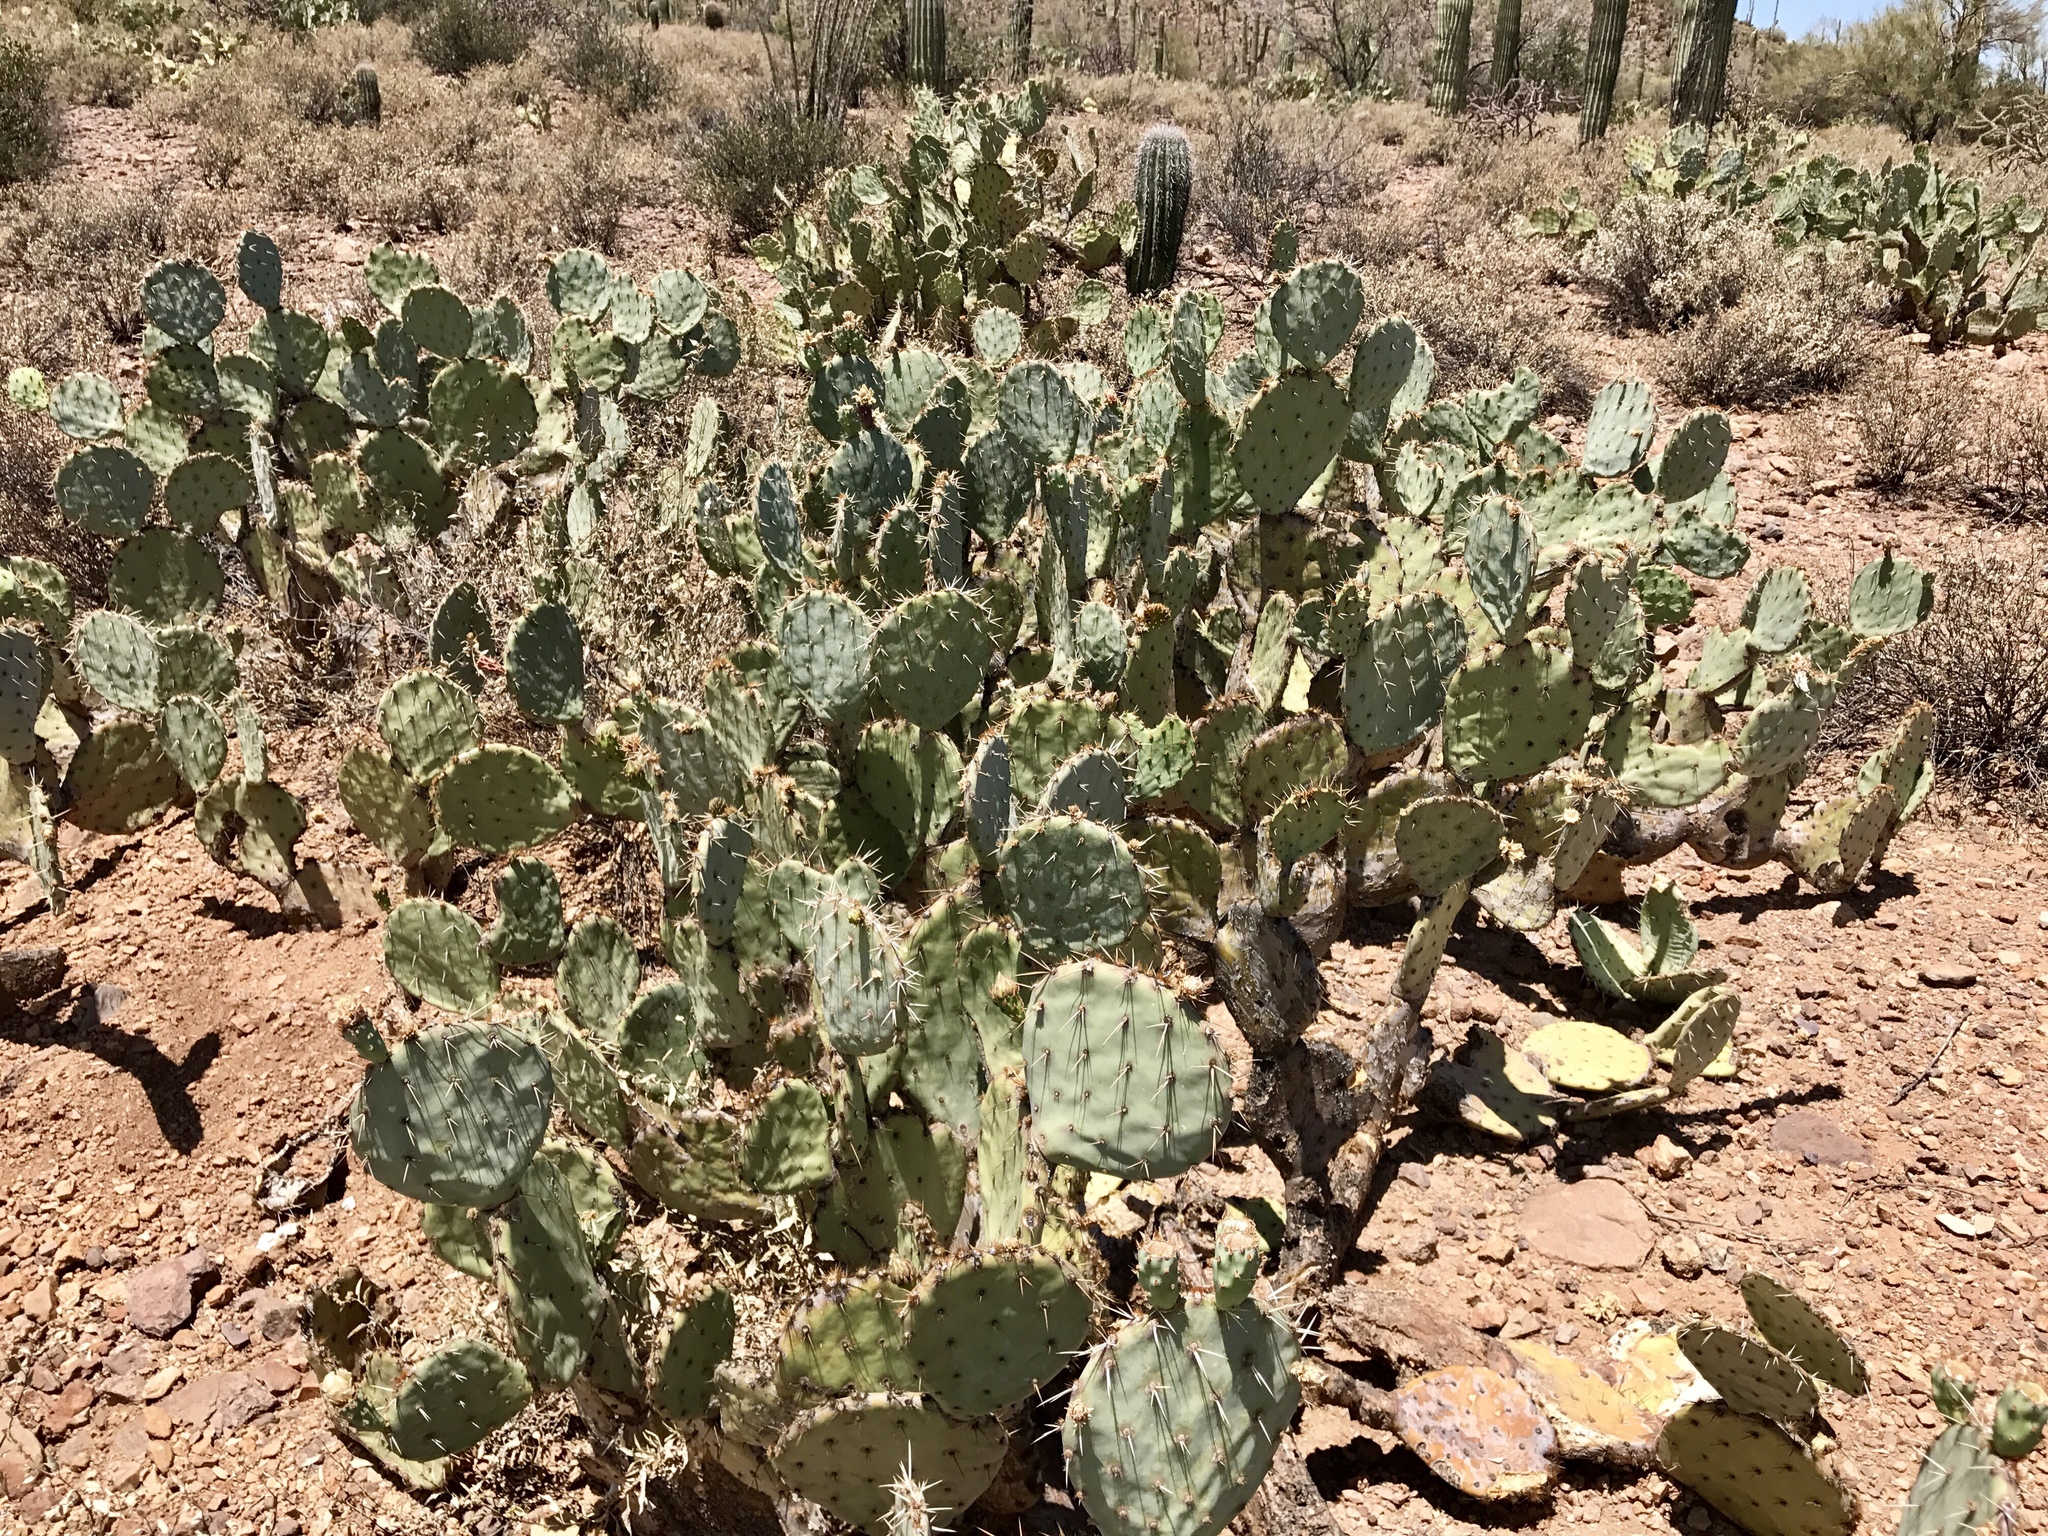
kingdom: Plantae
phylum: Tracheophyta
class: Magnoliopsida
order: Caryophyllales
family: Cactaceae
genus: Opuntia
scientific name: Opuntia engelmannii
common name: Cactus-apple
